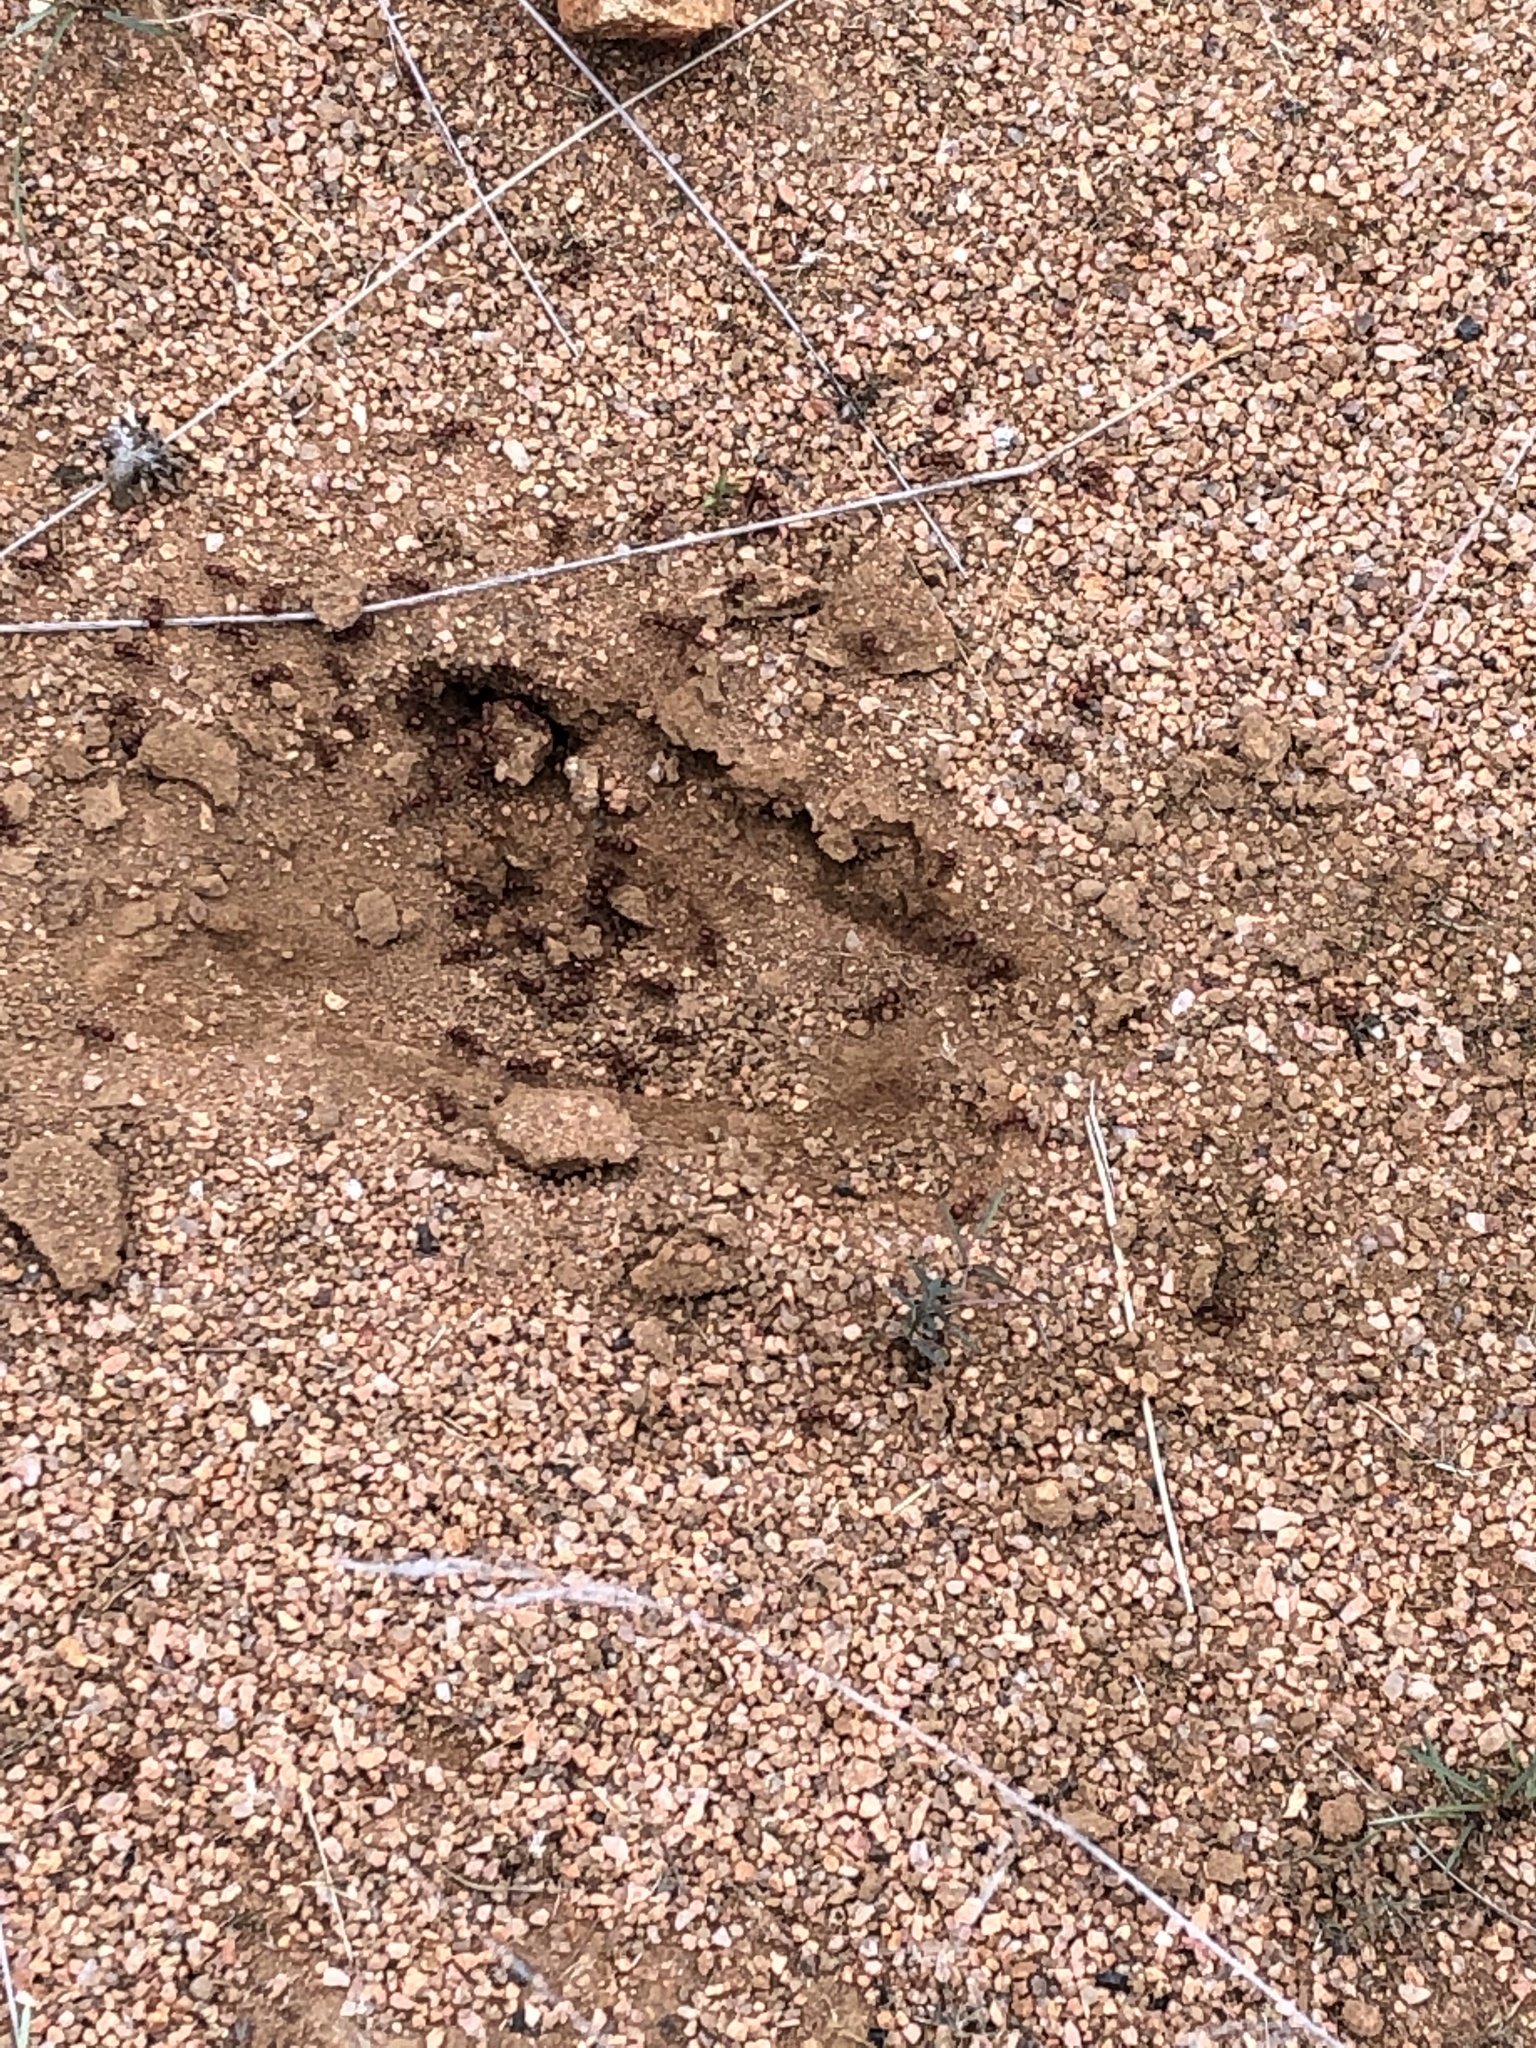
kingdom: Animalia
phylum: Arthropoda
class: Insecta
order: Hymenoptera
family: Formicidae
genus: Pogonomyrmex
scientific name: Pogonomyrmex barbatus
